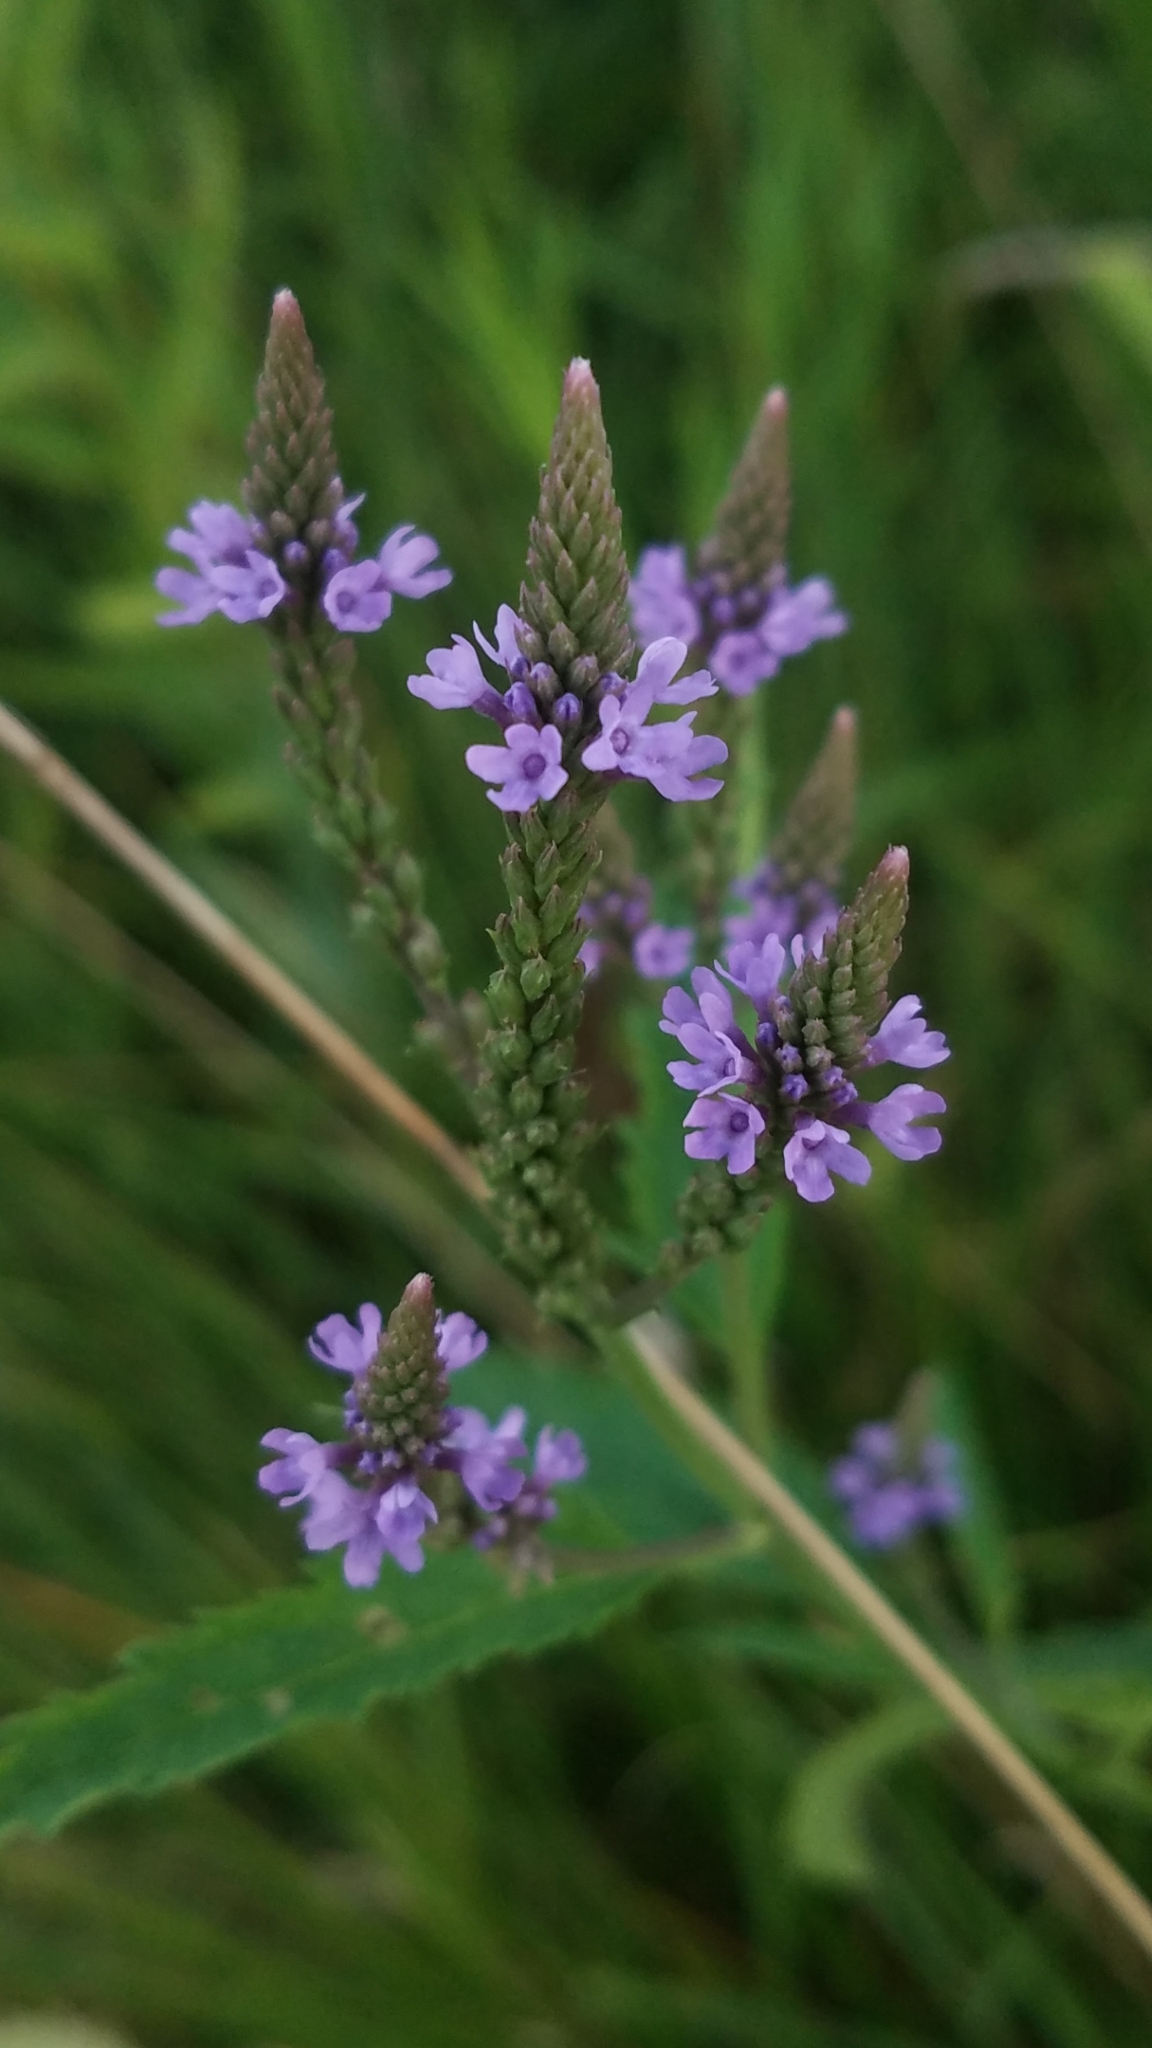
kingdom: Plantae
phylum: Tracheophyta
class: Magnoliopsida
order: Lamiales
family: Verbenaceae
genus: Verbena
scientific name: Verbena hastata
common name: American blue vervain
